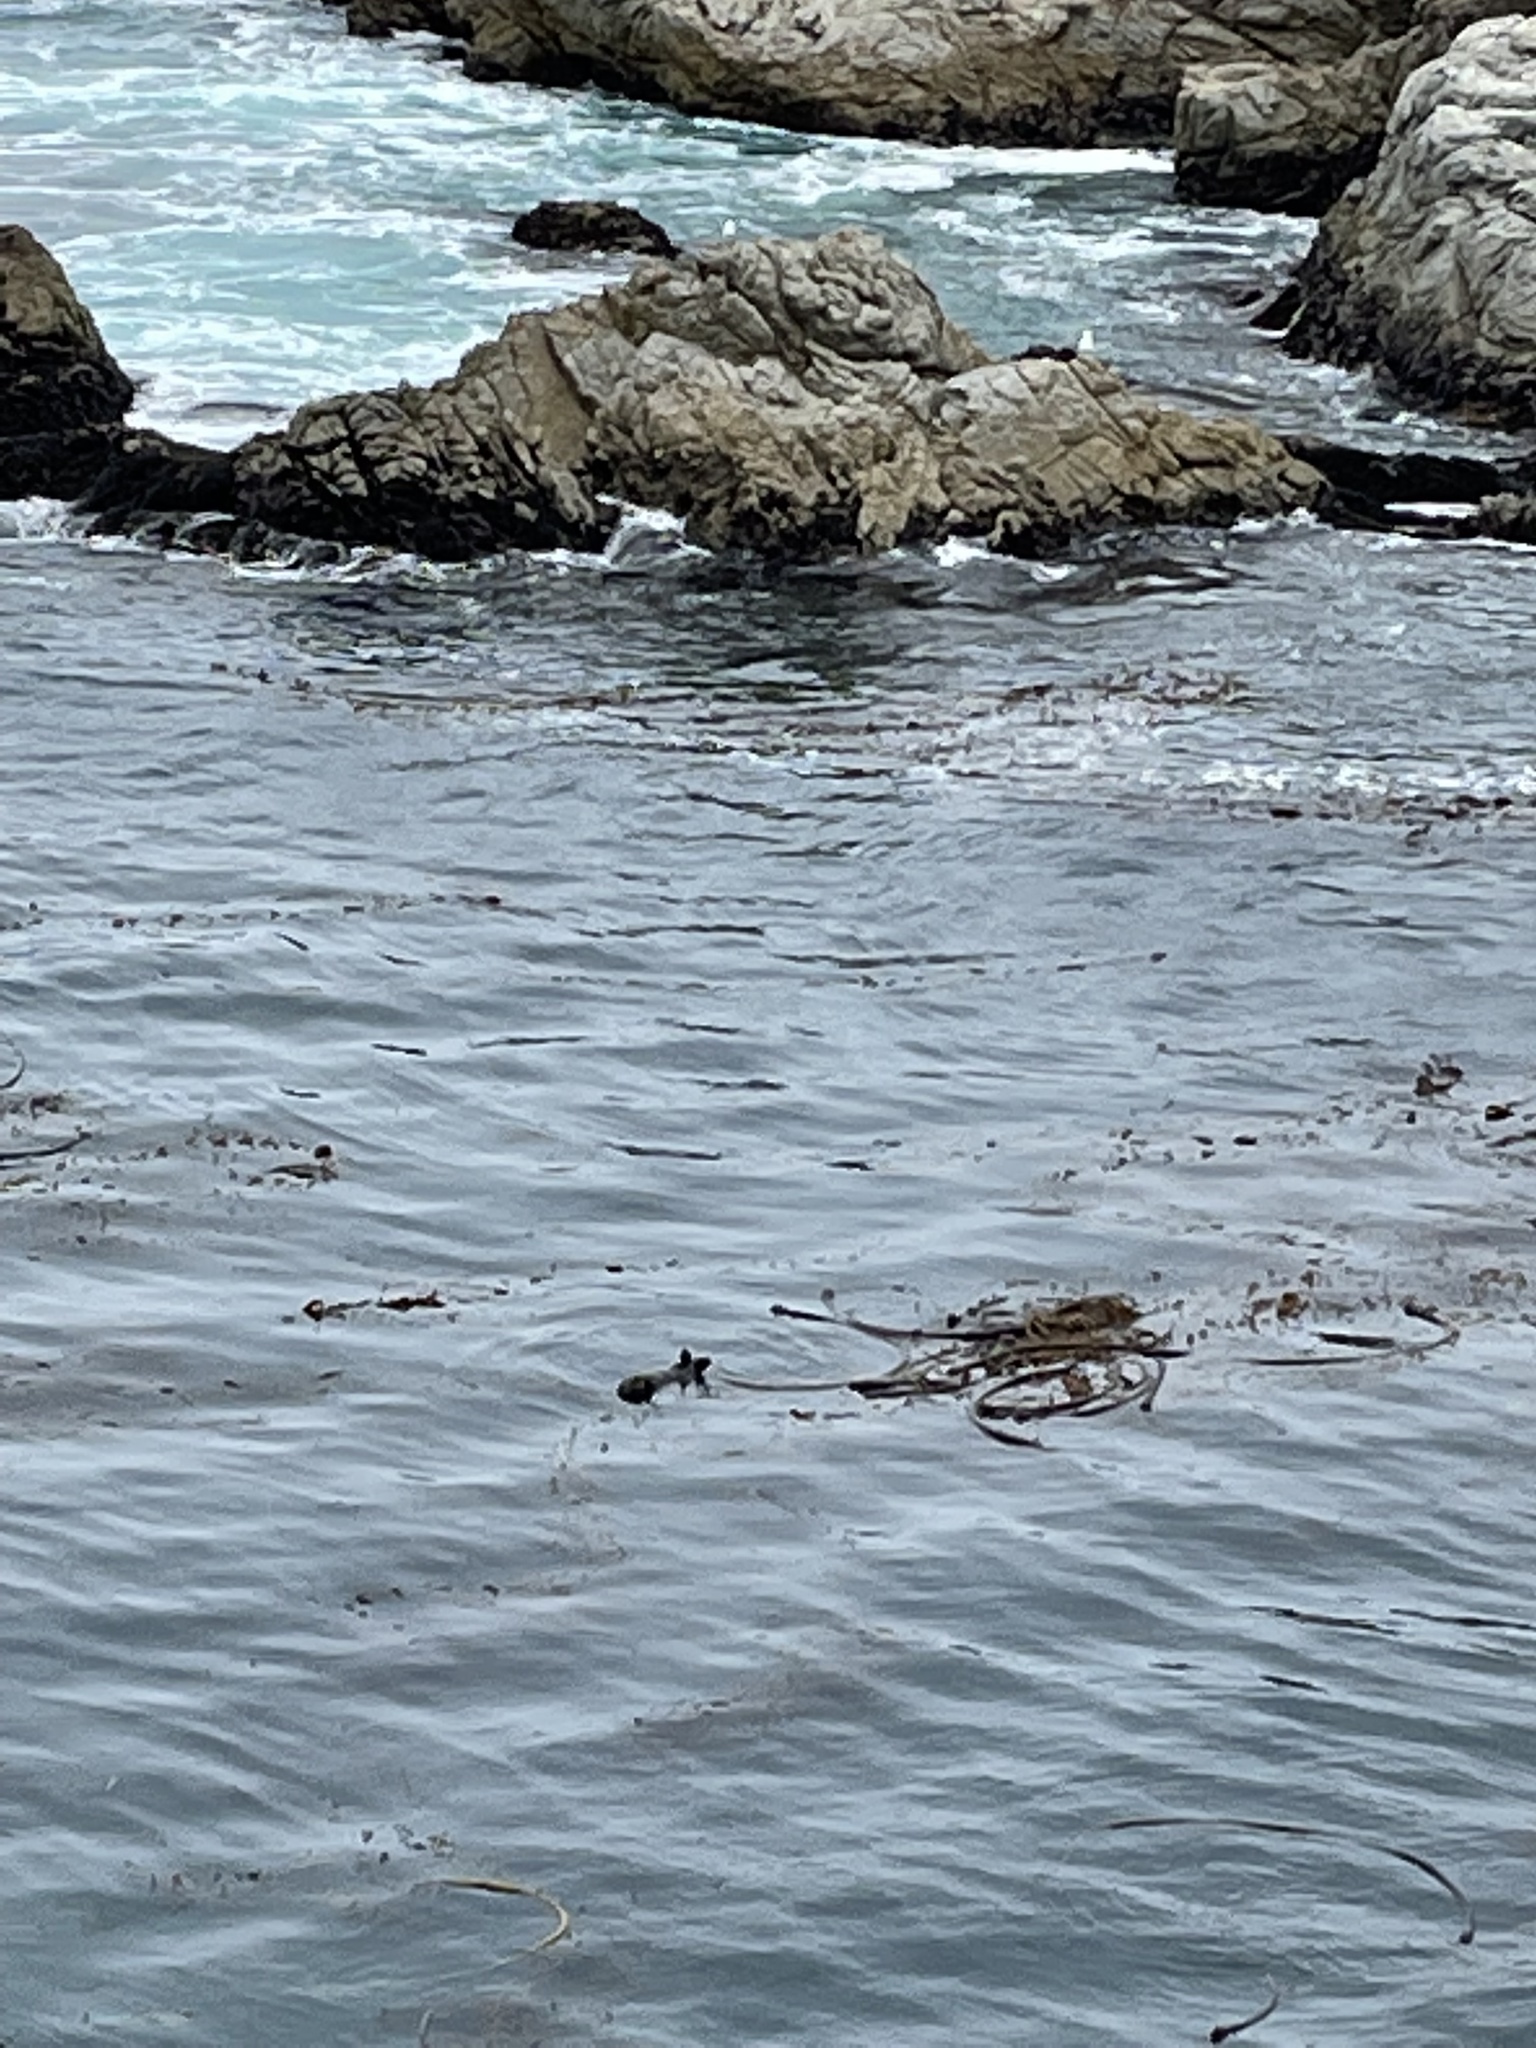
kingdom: Animalia
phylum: Chordata
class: Mammalia
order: Carnivora
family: Mustelidae
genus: Enhydra
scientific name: Enhydra lutris
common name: Sea otter
